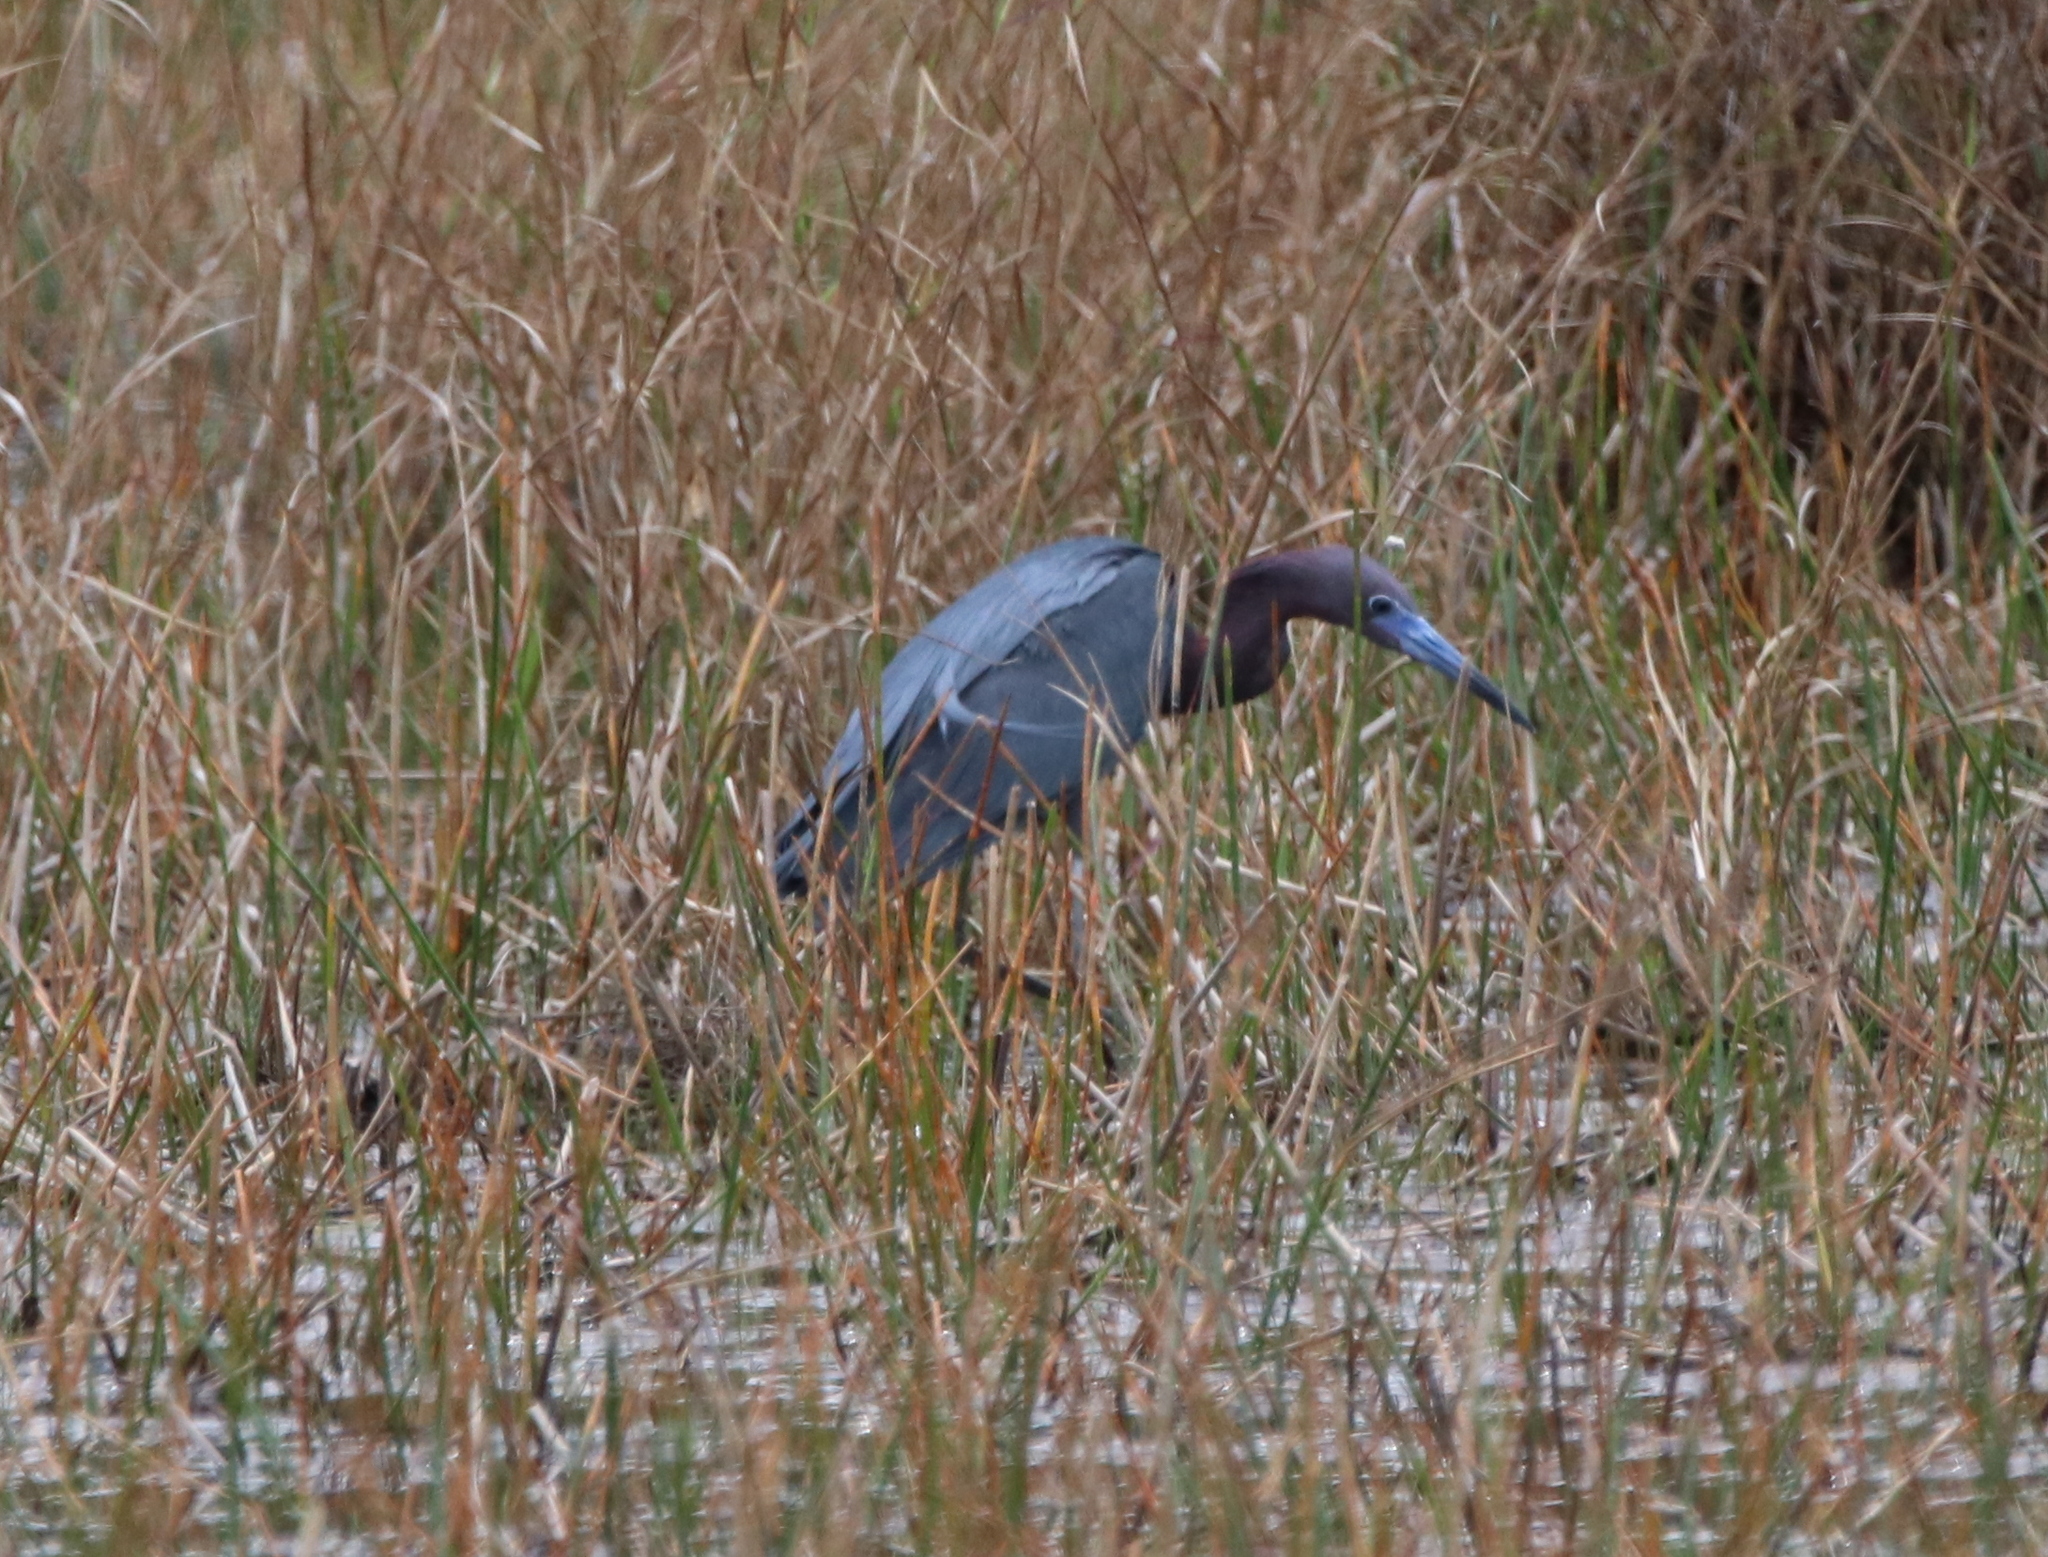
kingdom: Animalia
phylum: Chordata
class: Aves
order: Pelecaniformes
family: Ardeidae
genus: Egretta
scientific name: Egretta caerulea
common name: Little blue heron
